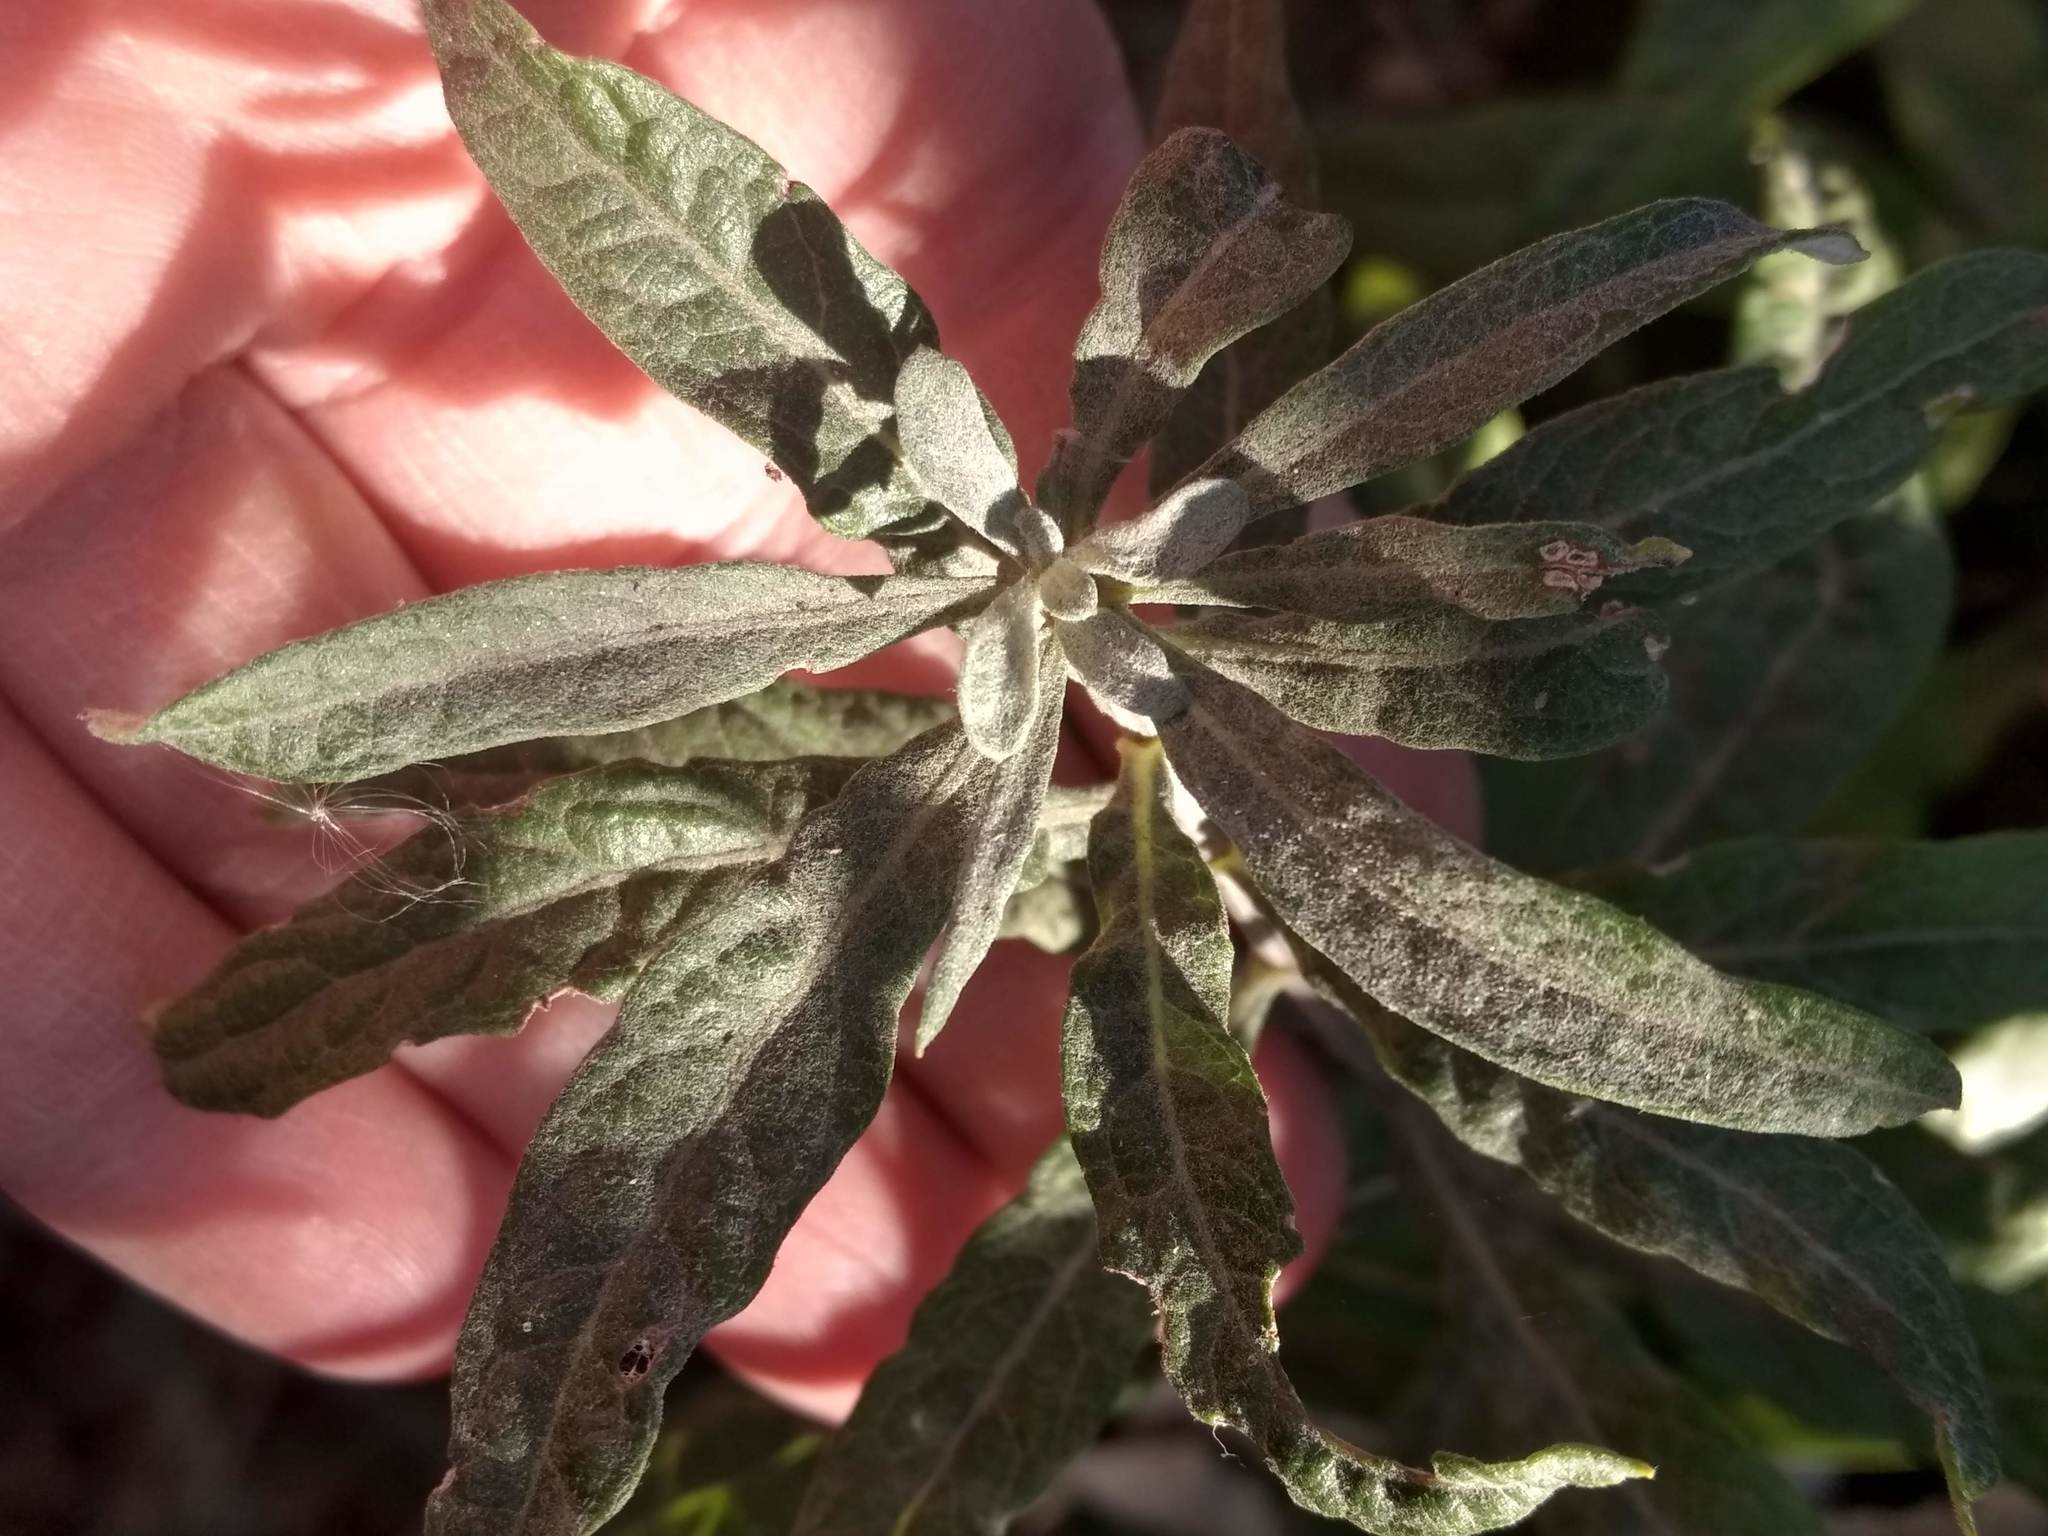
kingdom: Plantae
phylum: Tracheophyta
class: Magnoliopsida
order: Asterales
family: Asteraceae
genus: Artemisia
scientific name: Artemisia douglasiana
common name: Northwest mugwort
